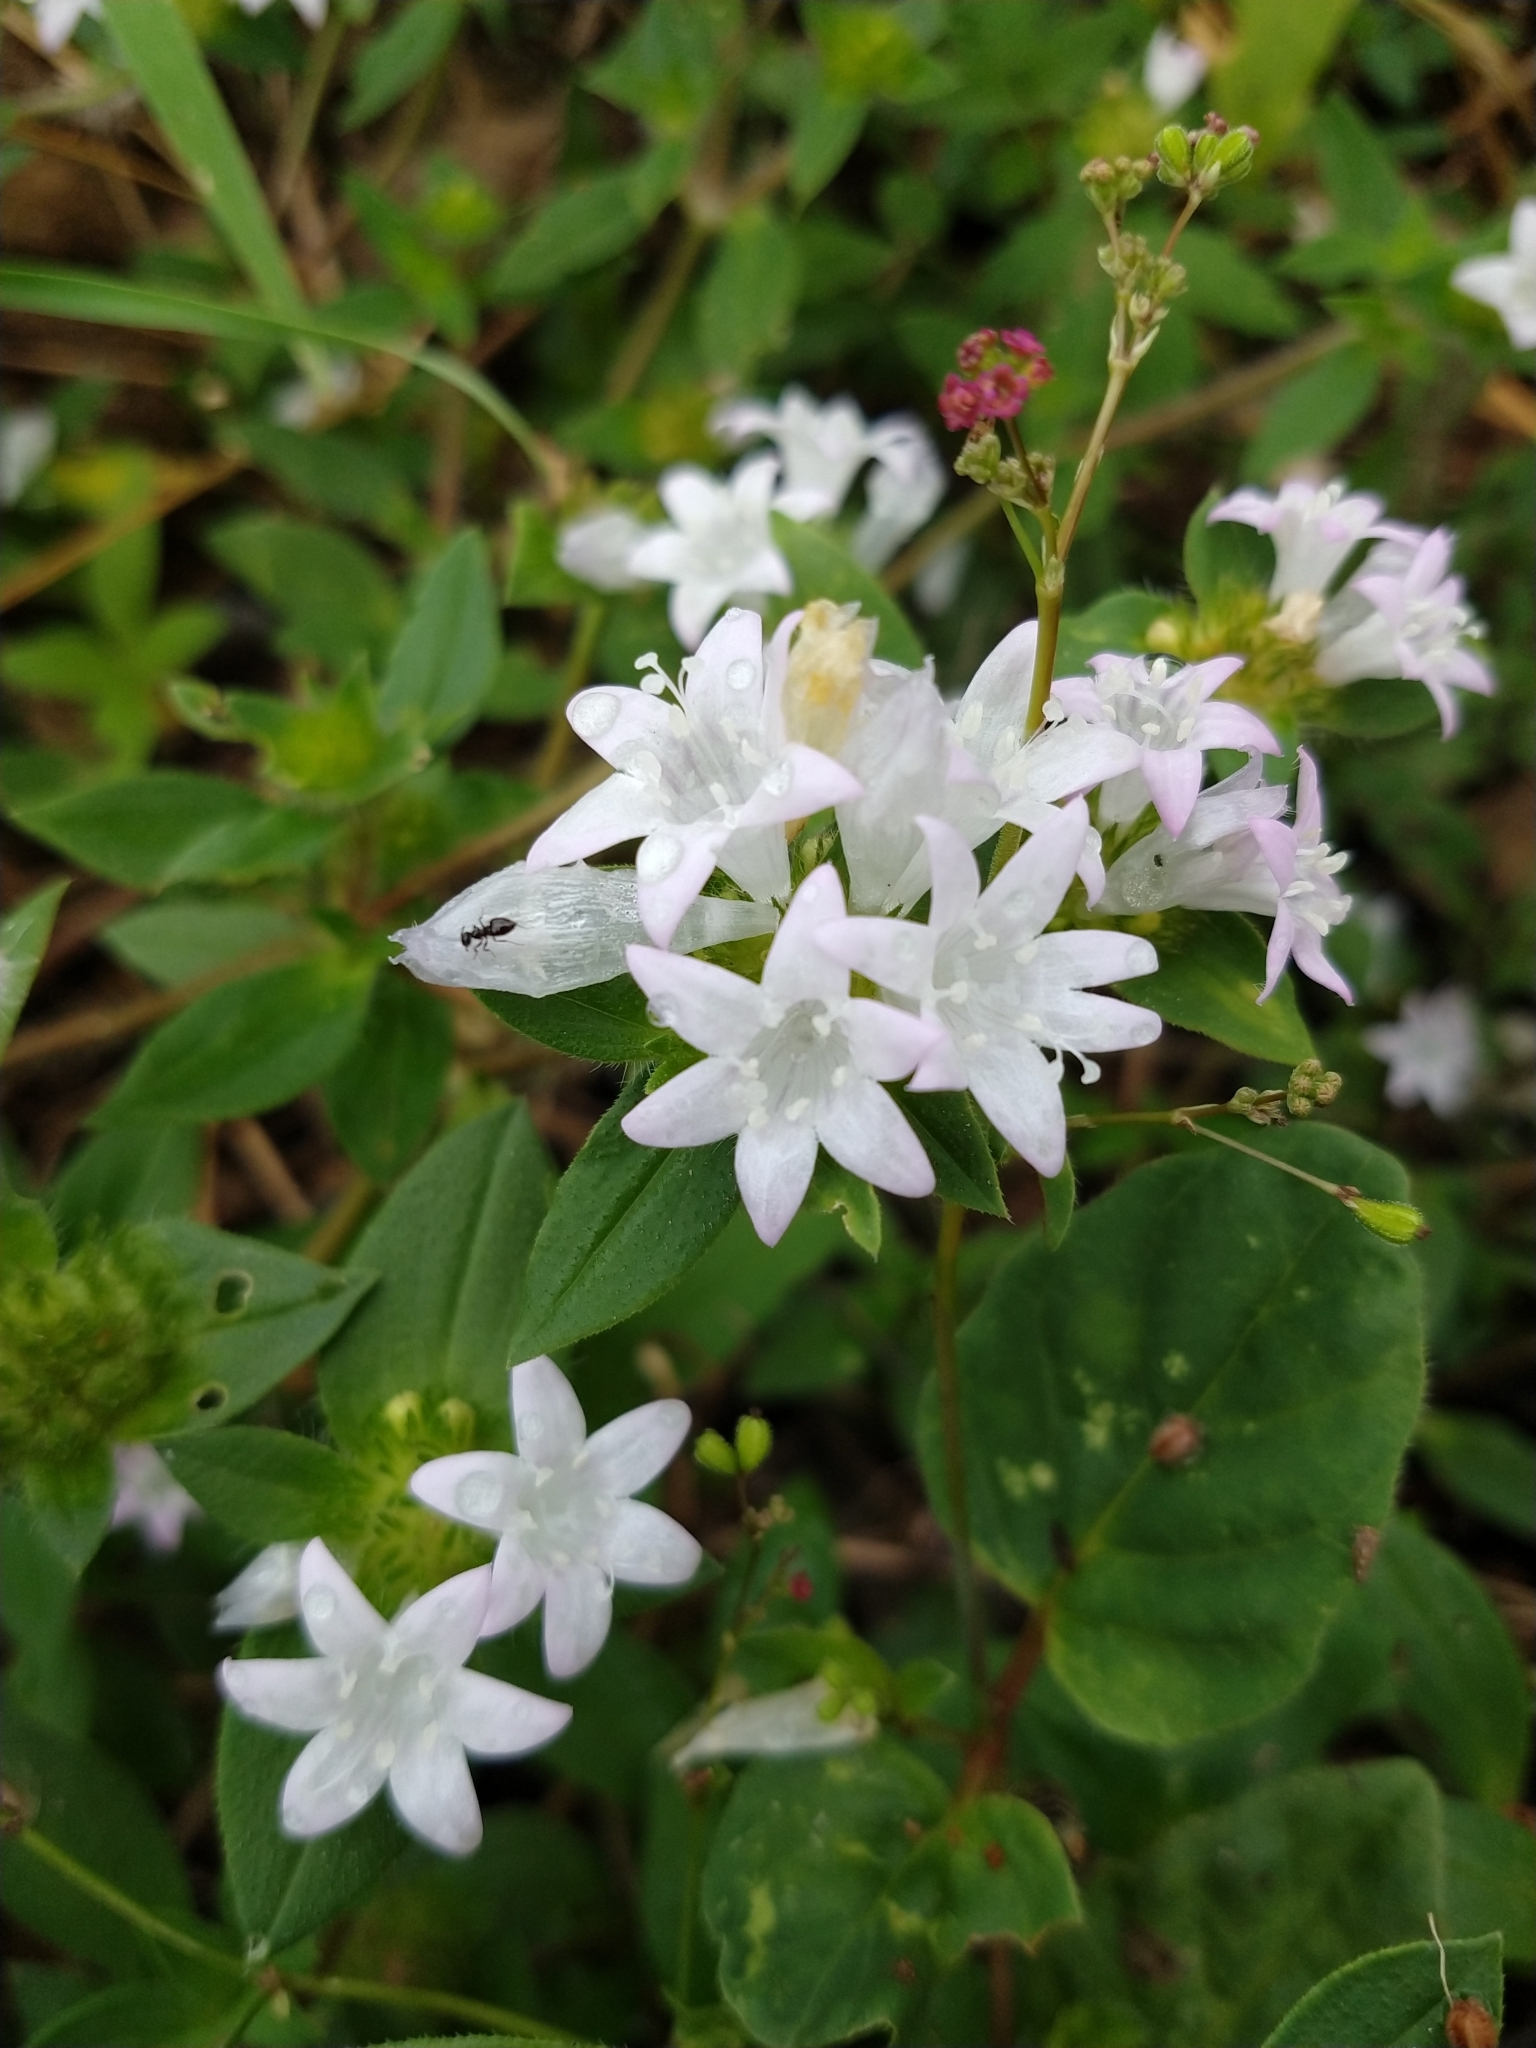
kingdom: Plantae
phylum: Tracheophyta
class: Magnoliopsida
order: Gentianales
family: Rubiaceae
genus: Richardia
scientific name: Richardia grandiflora
